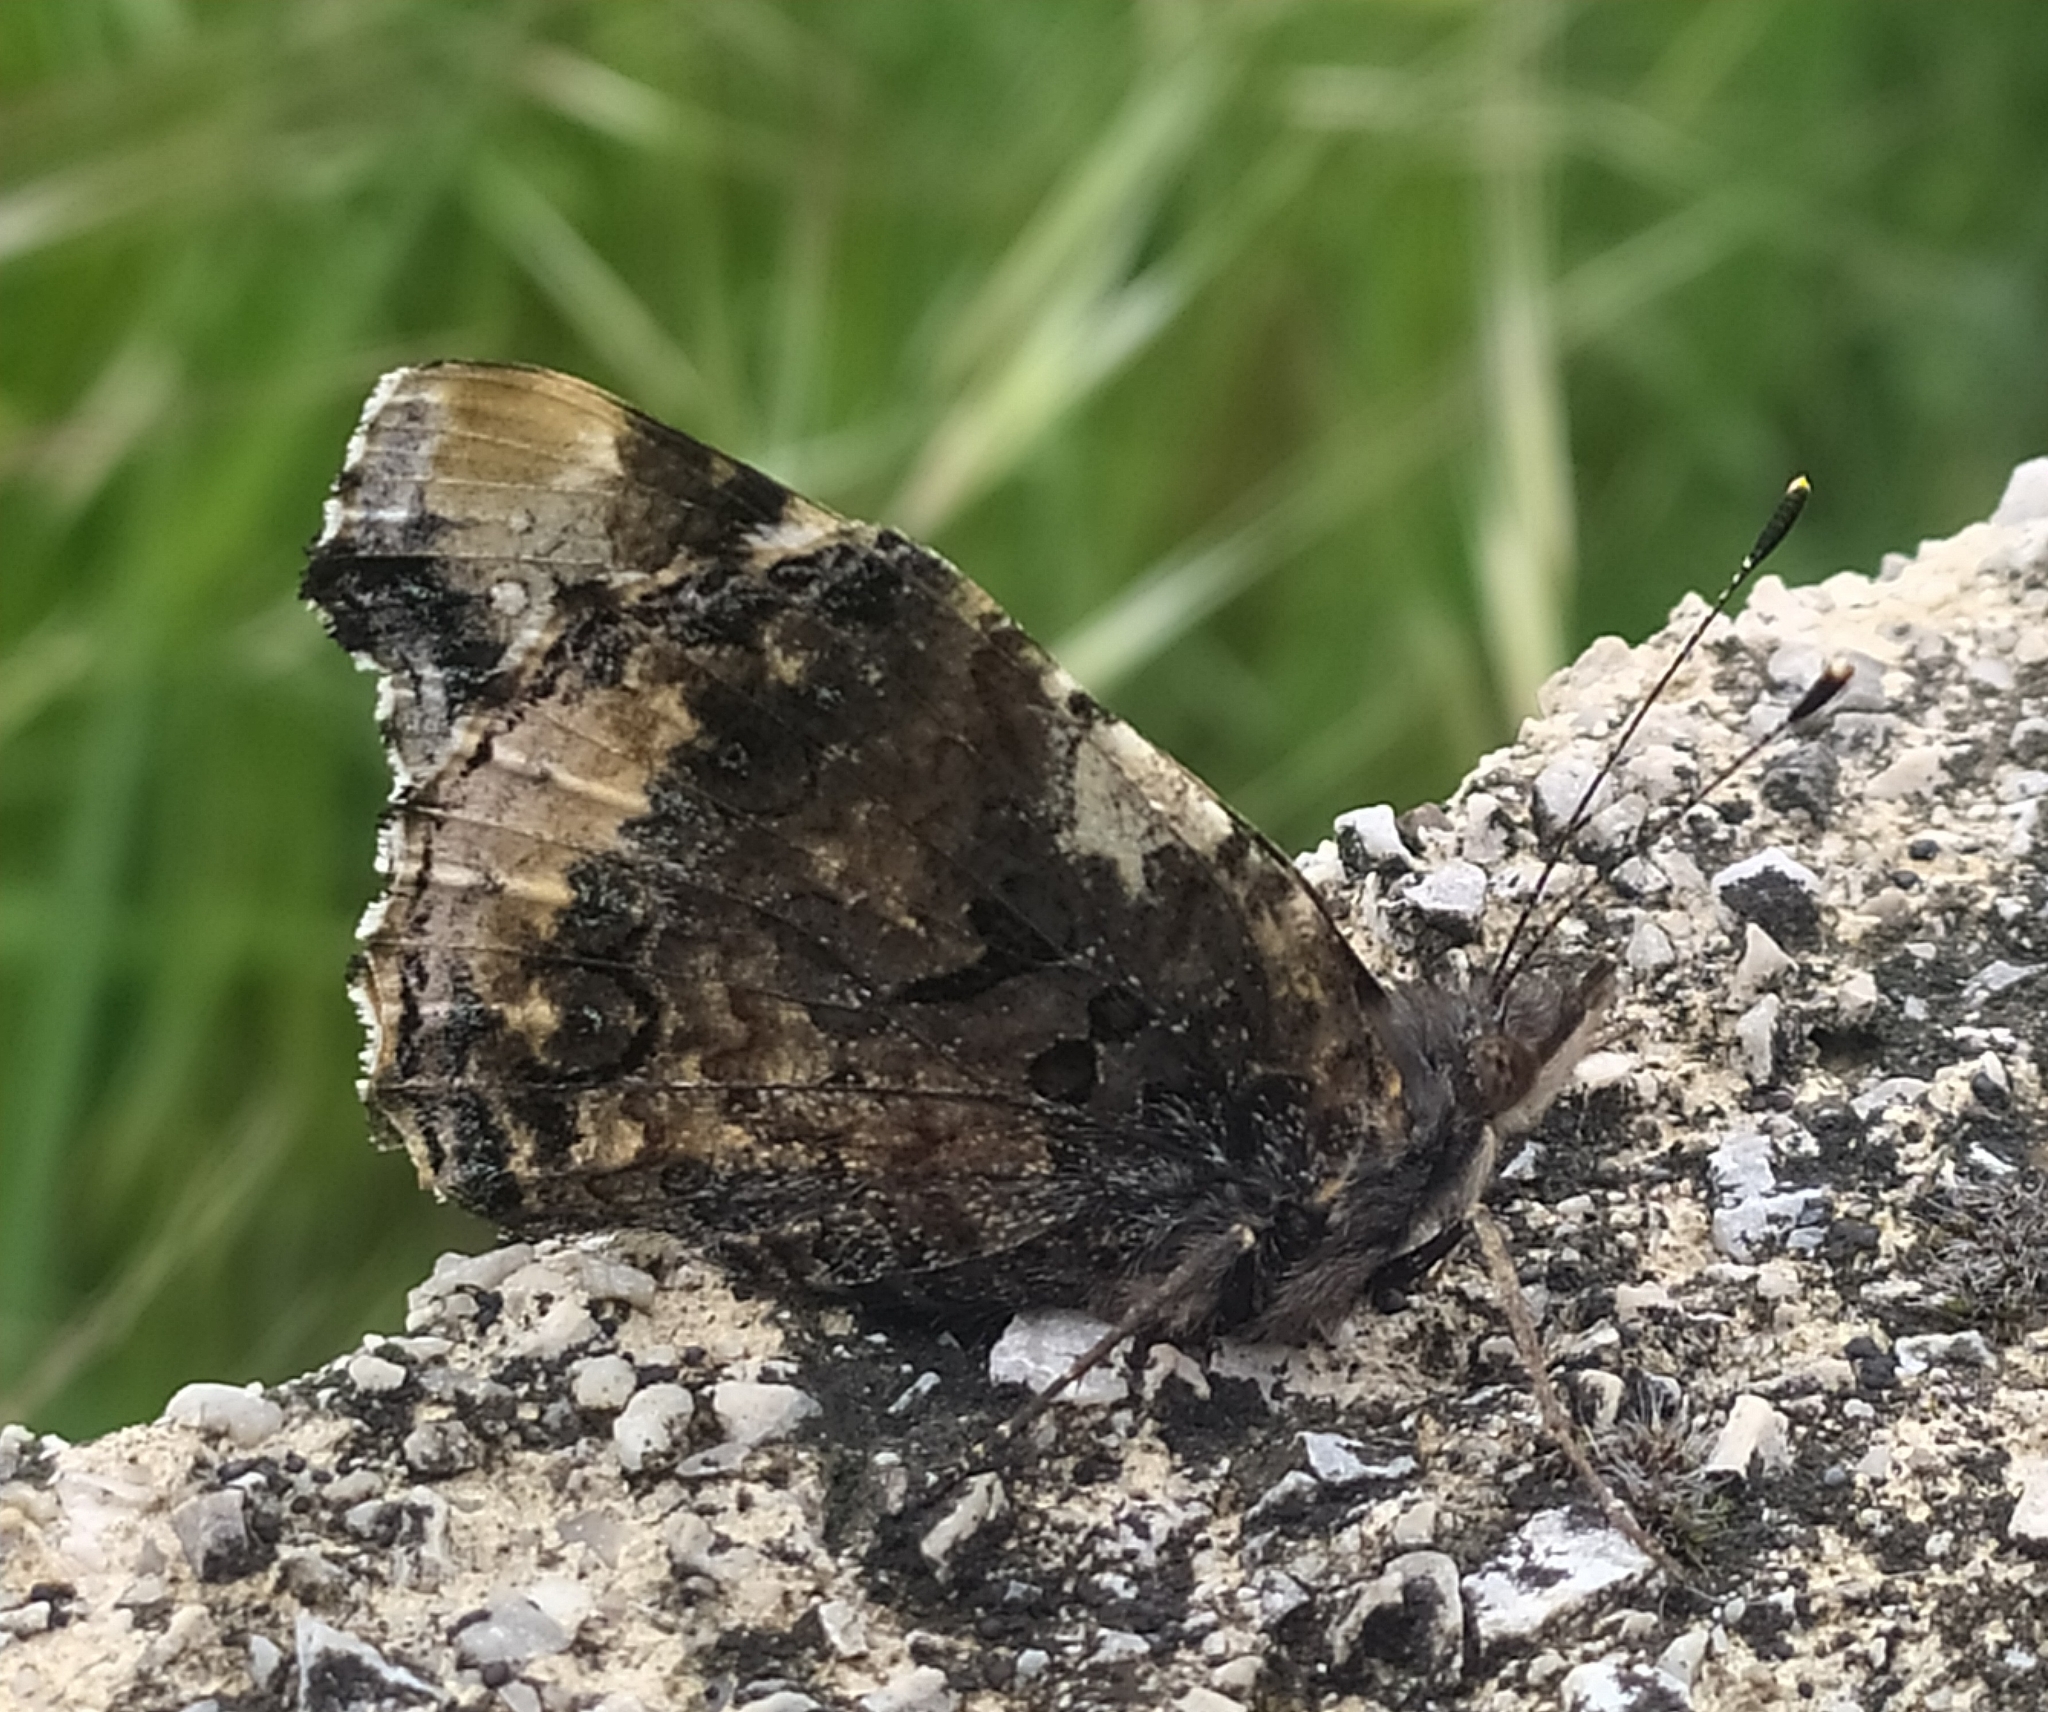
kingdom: Animalia
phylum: Arthropoda
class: Insecta
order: Lepidoptera
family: Nymphalidae
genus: Vanessa
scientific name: Vanessa atalanta
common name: Red admiral
